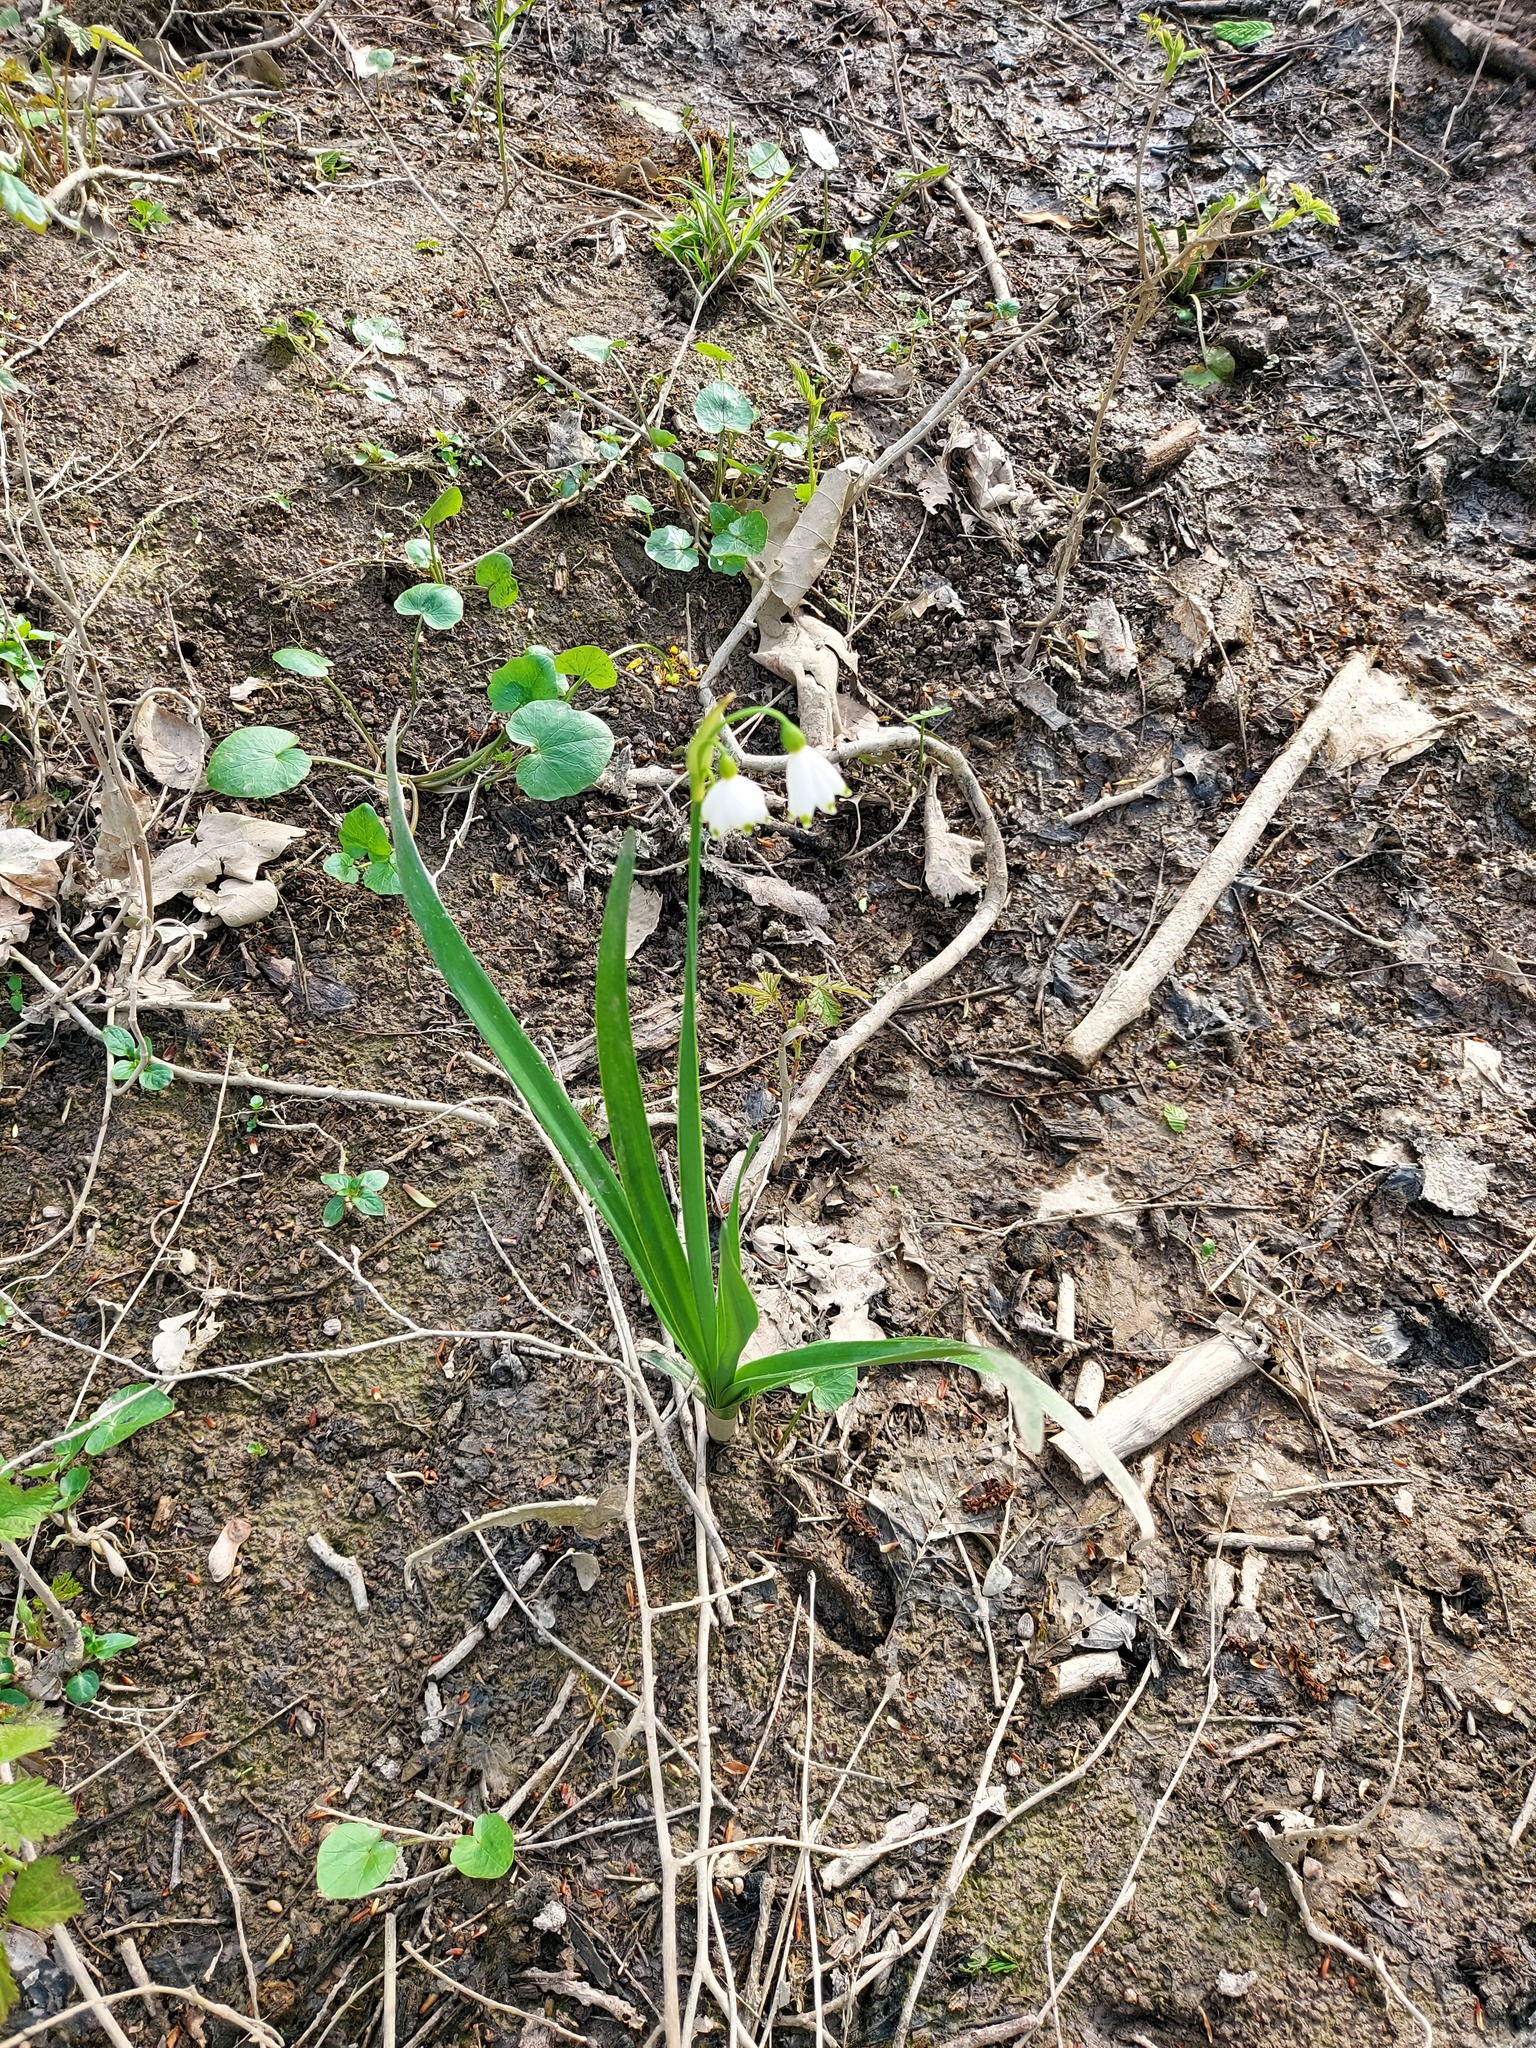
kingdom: Plantae
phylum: Tracheophyta
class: Liliopsida
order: Asparagales
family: Amaryllidaceae
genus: Leucojum
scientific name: Leucojum aestivum
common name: Summer snowflake
